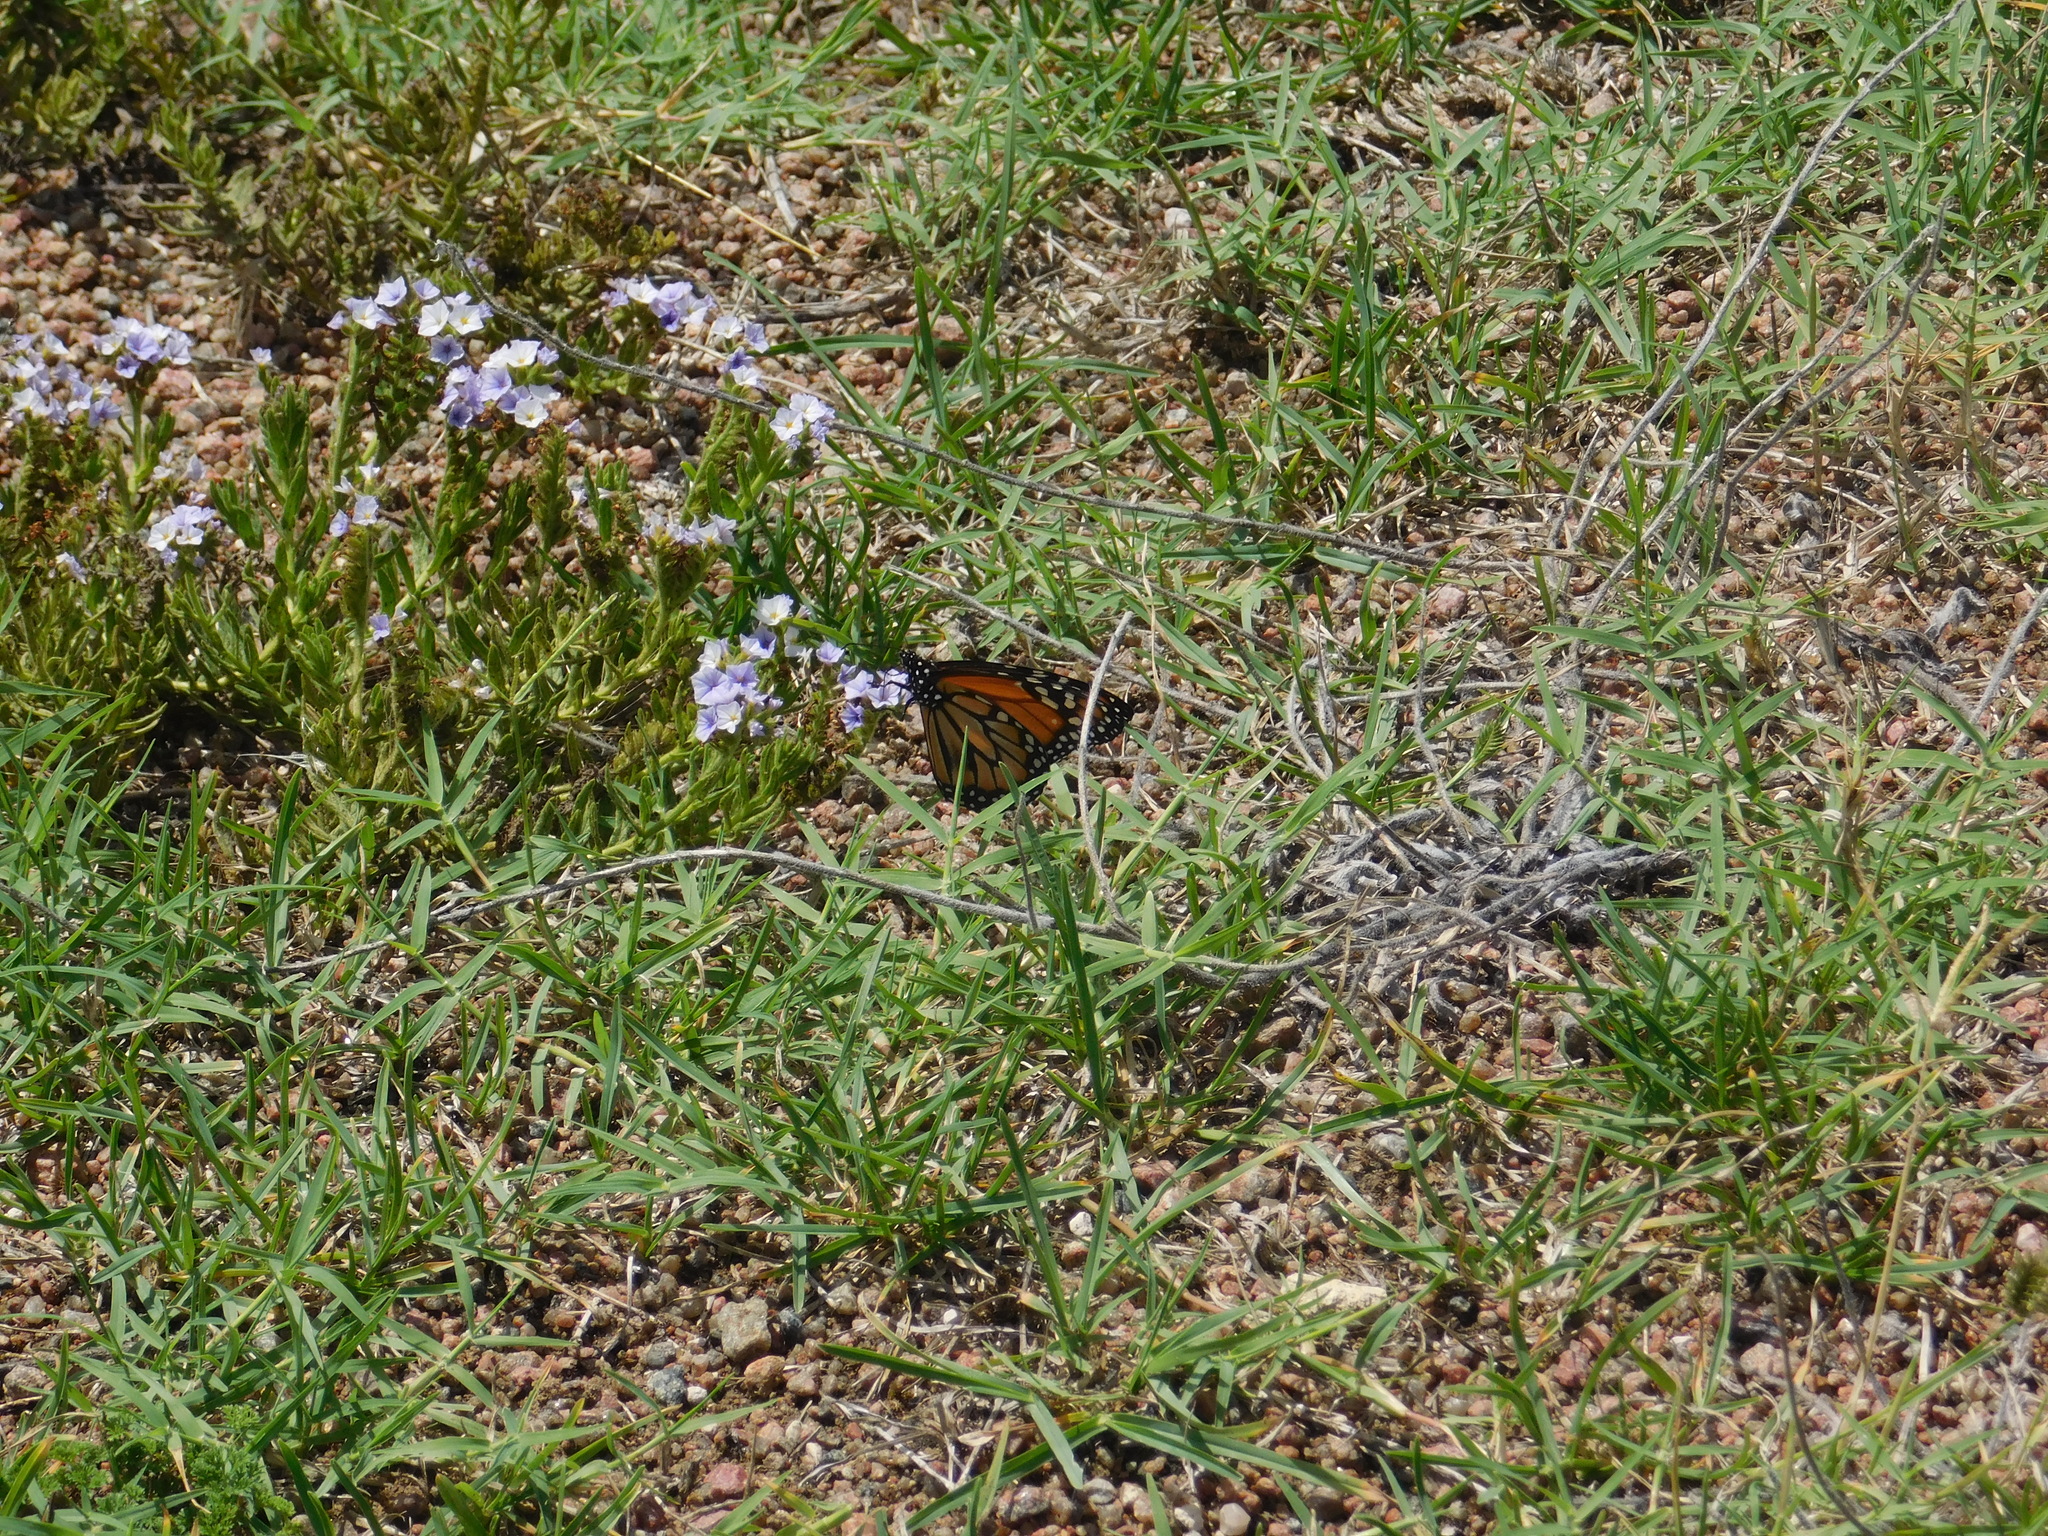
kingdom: Animalia
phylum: Arthropoda
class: Insecta
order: Lepidoptera
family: Nymphalidae
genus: Danaus
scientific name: Danaus erippus
